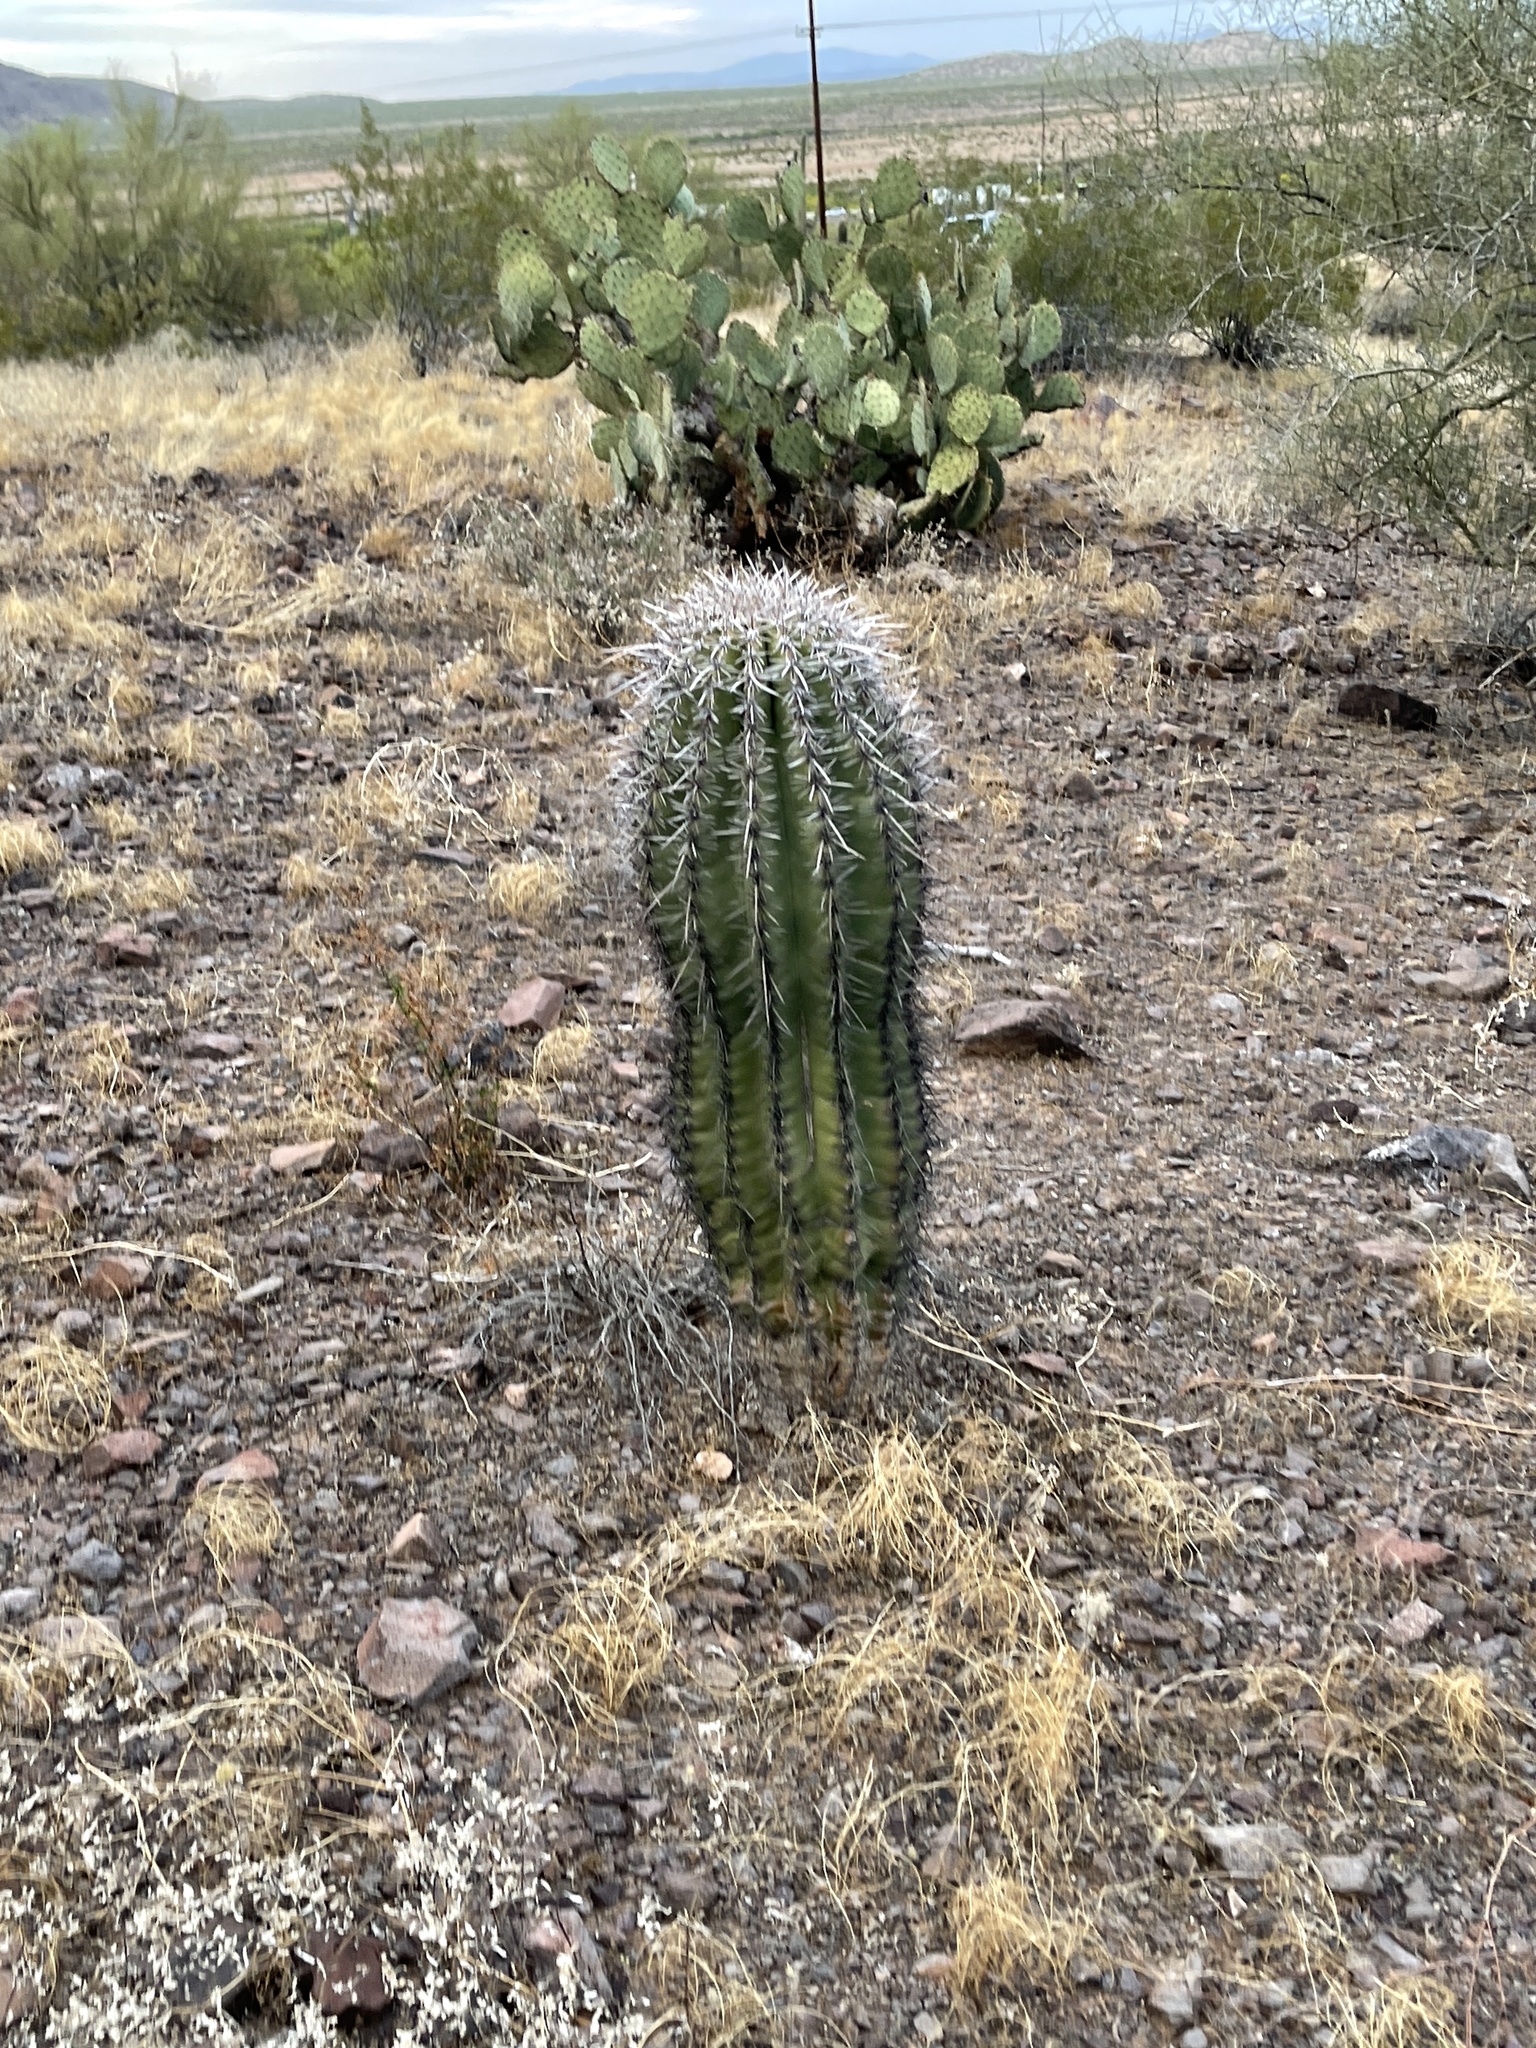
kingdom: Plantae
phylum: Tracheophyta
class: Magnoliopsida
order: Caryophyllales
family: Cactaceae
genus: Carnegiea
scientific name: Carnegiea gigantea
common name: Saguaro
